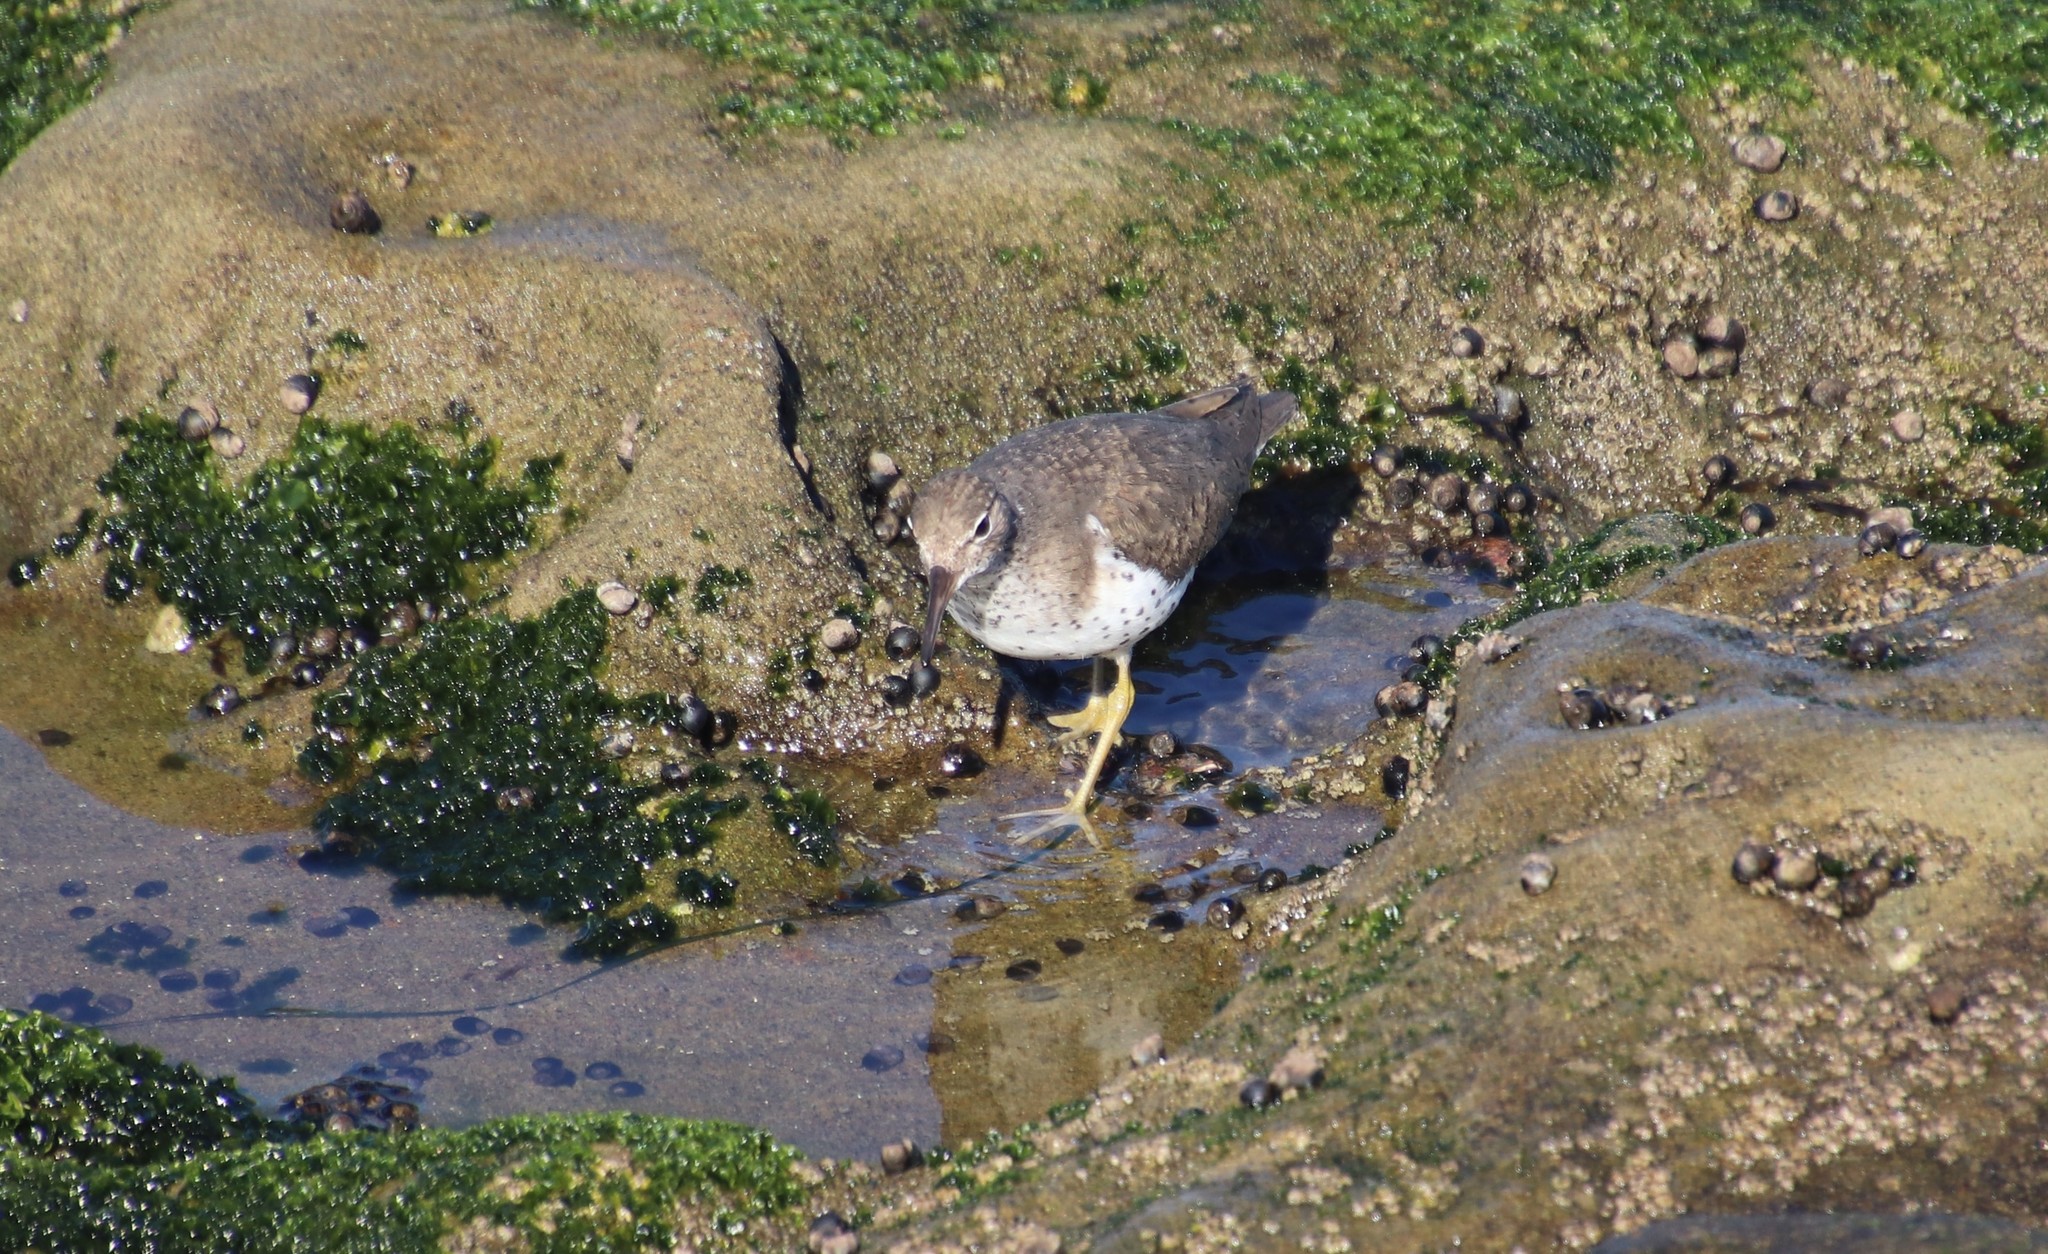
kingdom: Animalia
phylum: Chordata
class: Aves
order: Charadriiformes
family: Scolopacidae
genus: Actitis
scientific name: Actitis macularius
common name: Spotted sandpiper
